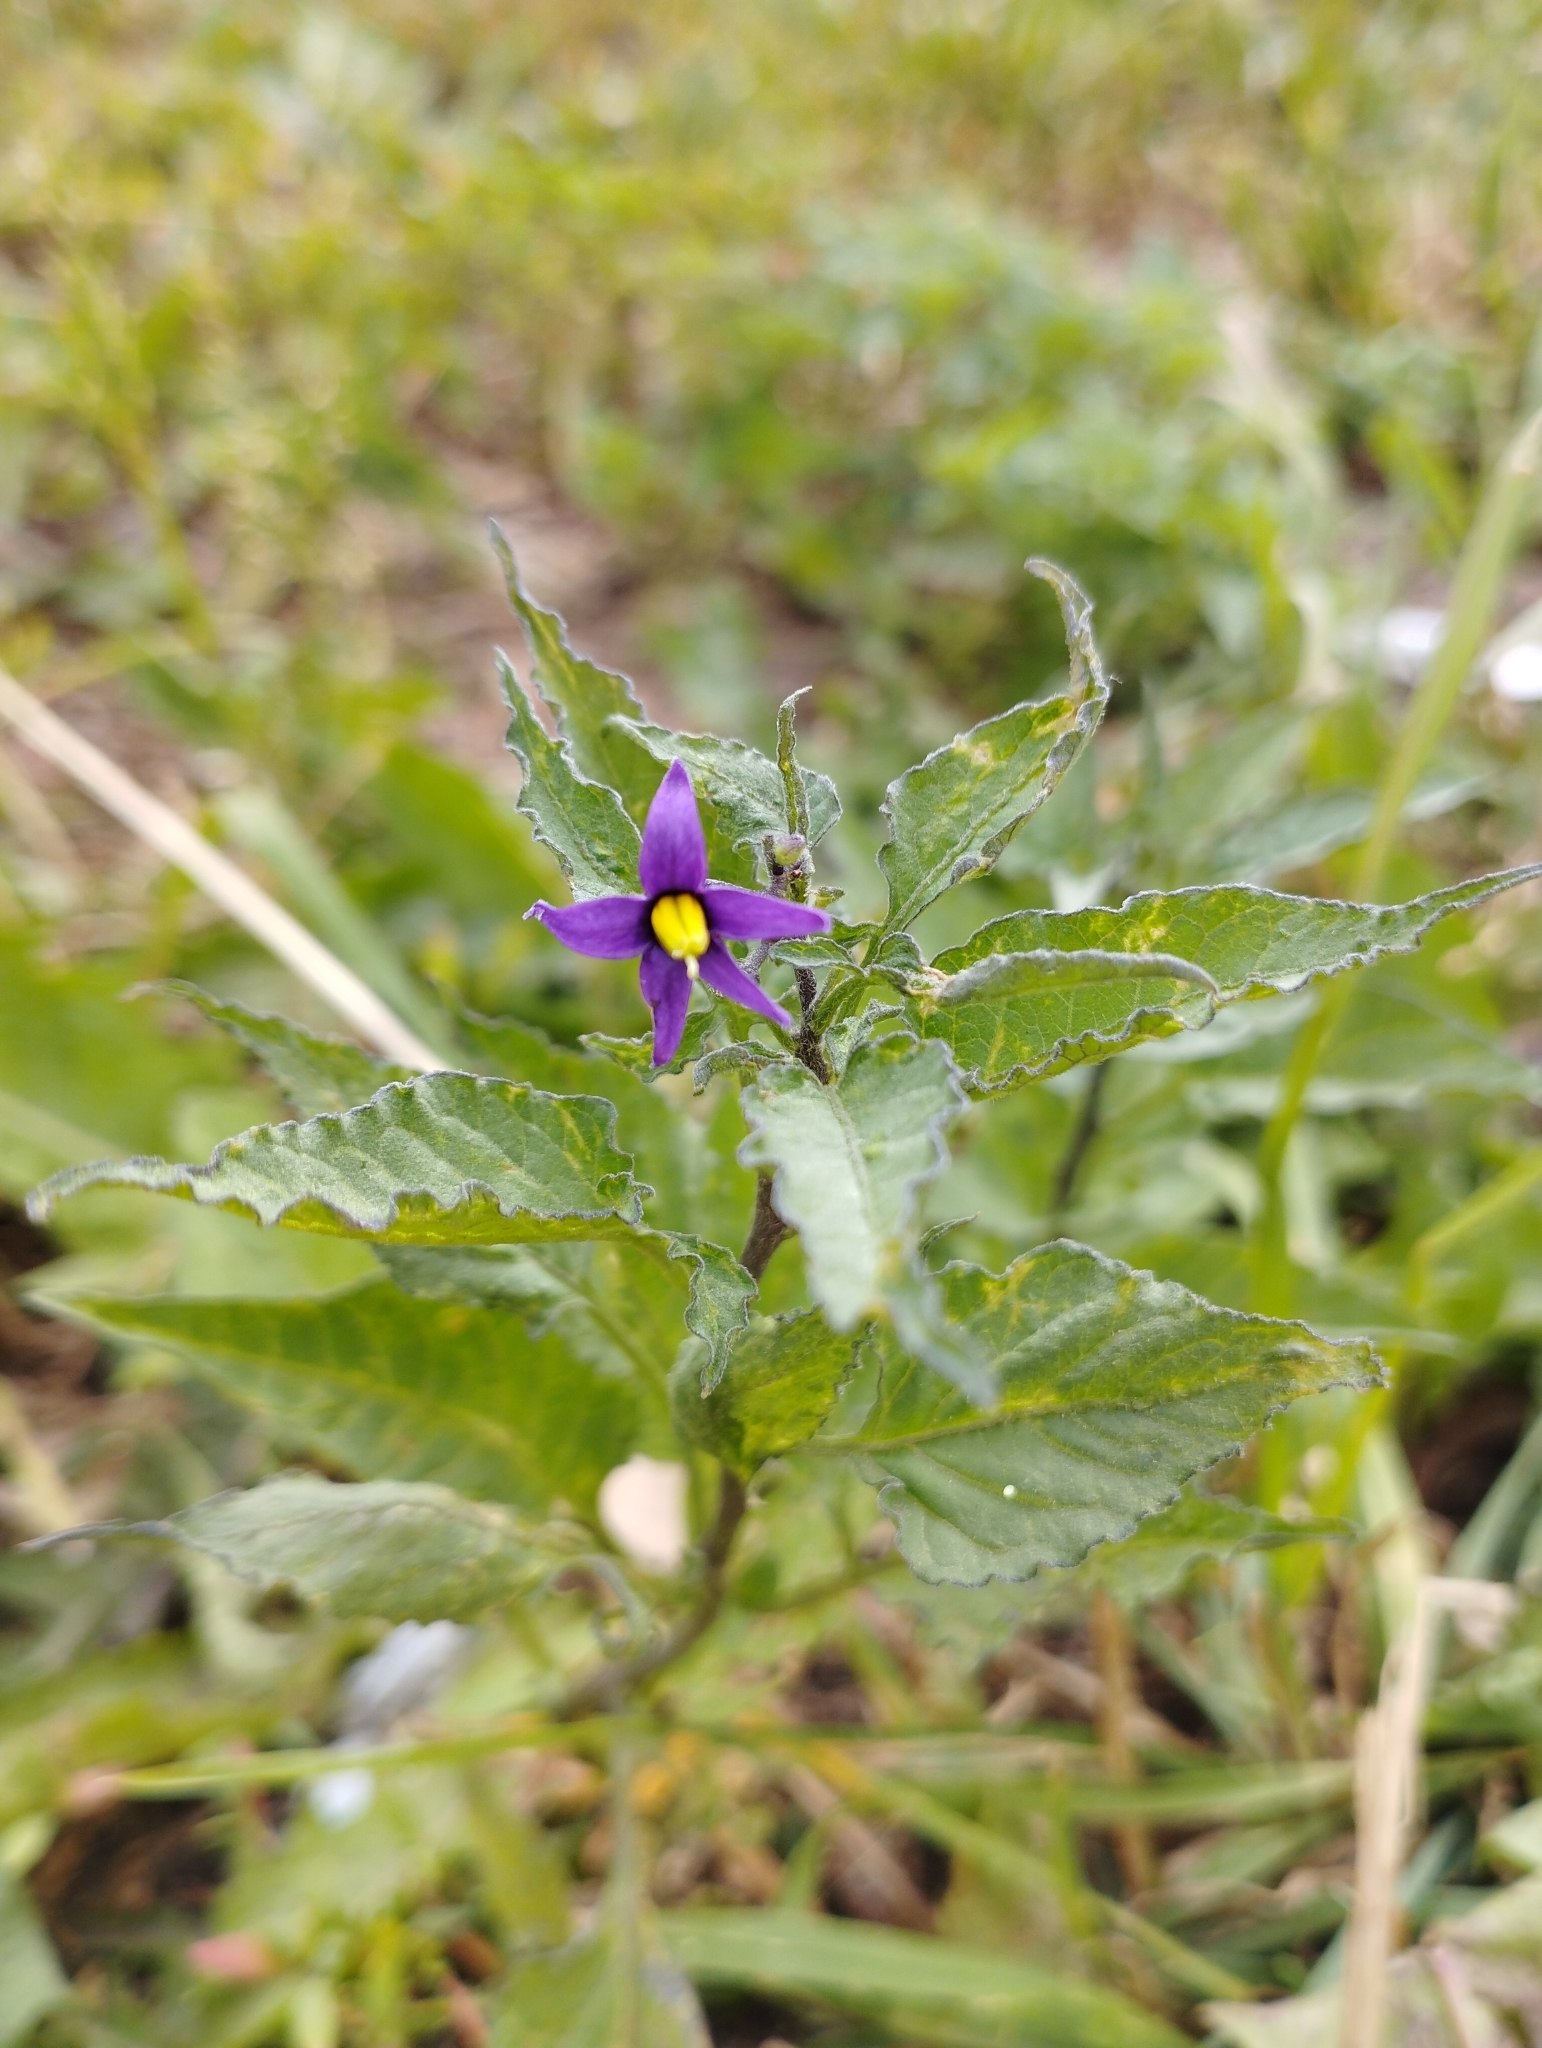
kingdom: Plantae
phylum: Tracheophyta
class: Magnoliopsida
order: Solanales
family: Solanaceae
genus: Solanum
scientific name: Solanum dulcamara
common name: Climbing nightshade
